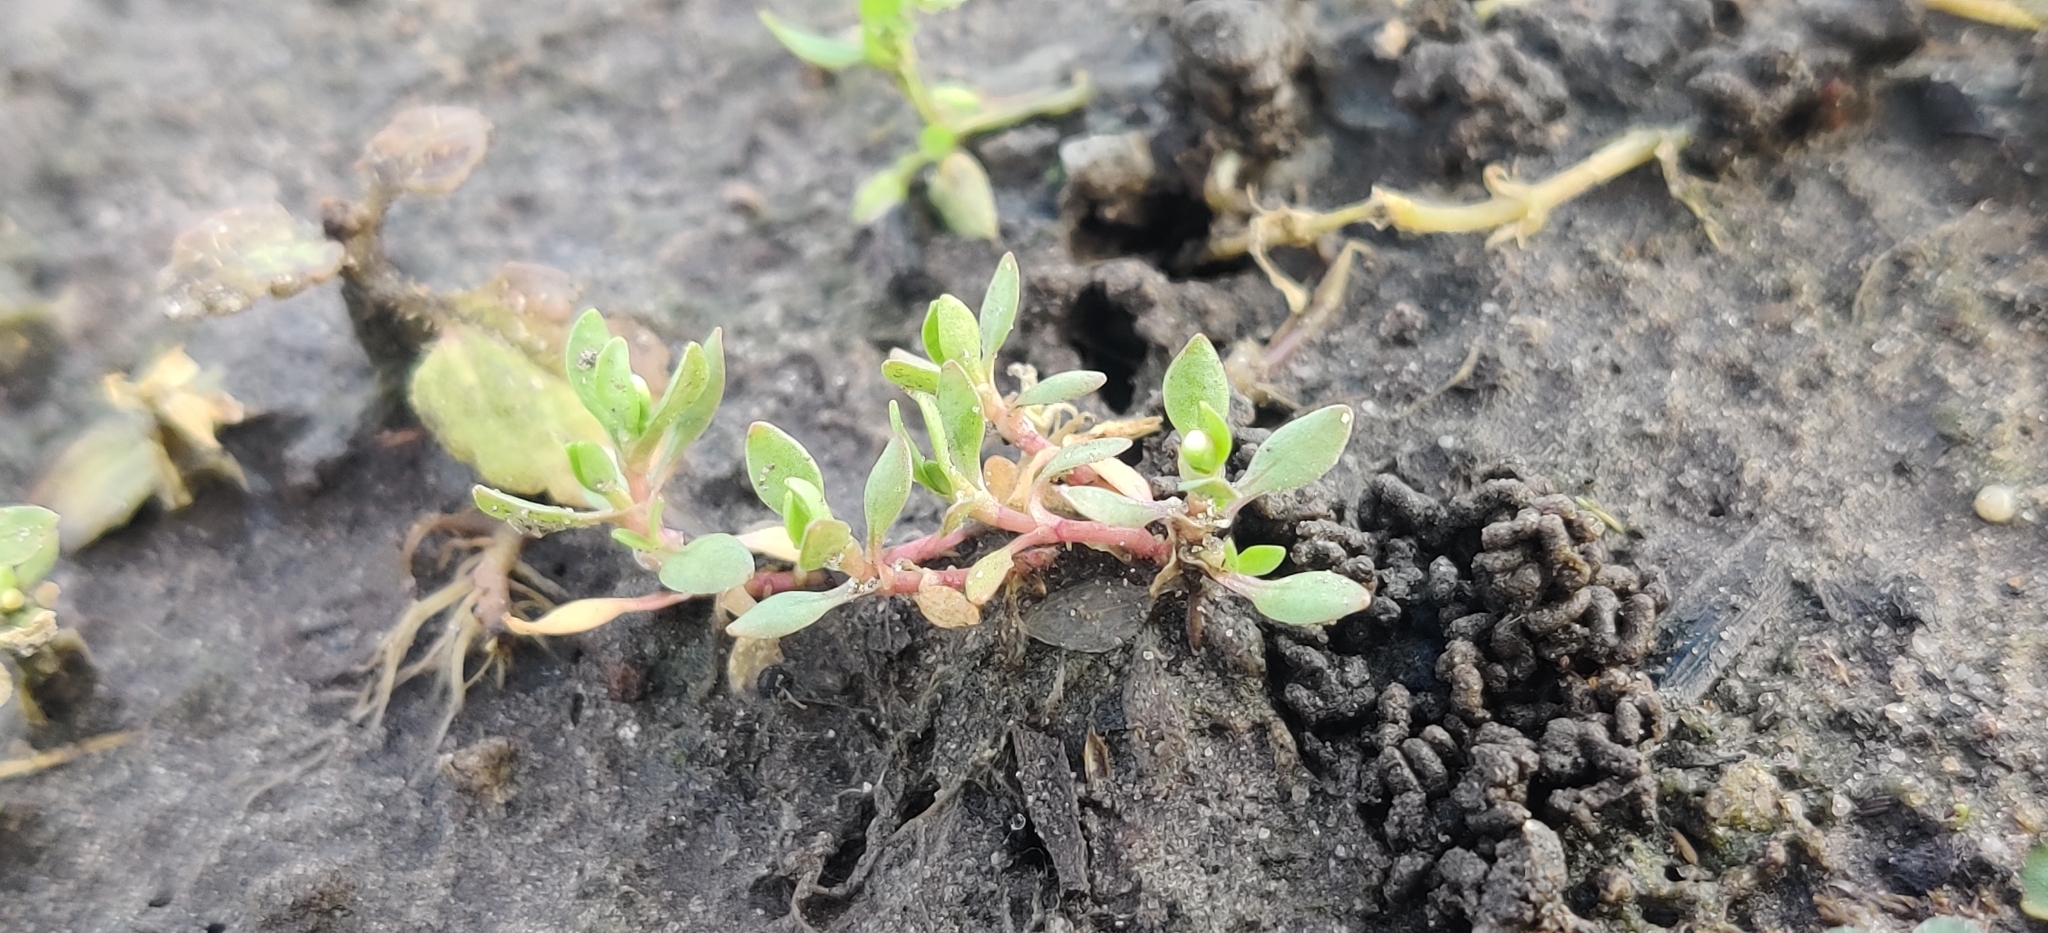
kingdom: Plantae
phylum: Tracheophyta
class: Magnoliopsida
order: Caryophyllales
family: Montiaceae
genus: Montia
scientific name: Montia
